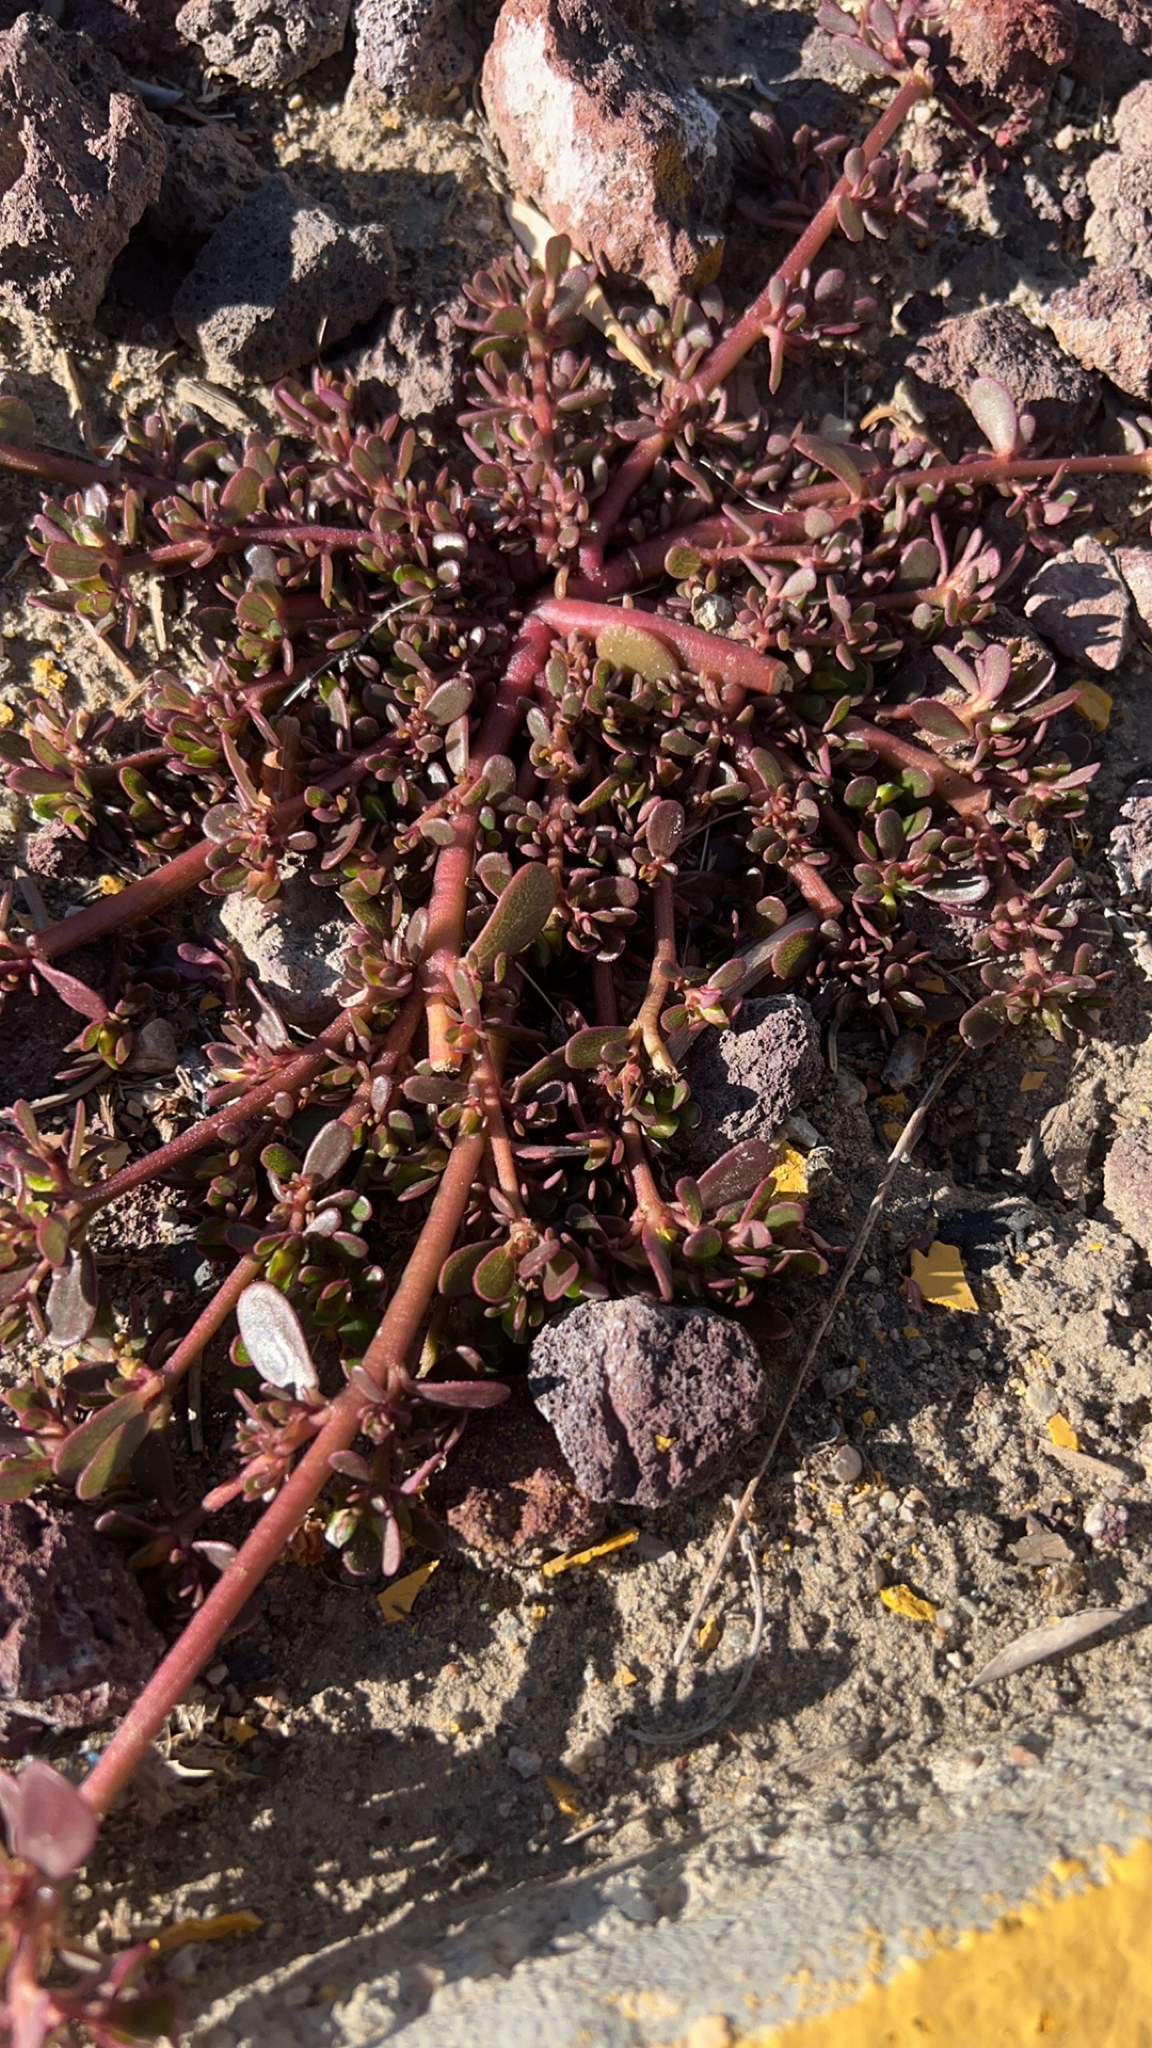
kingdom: Plantae
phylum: Tracheophyta
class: Magnoliopsida
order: Caryophyllales
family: Portulacaceae
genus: Portulaca
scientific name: Portulaca oleracea
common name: Common purslane
